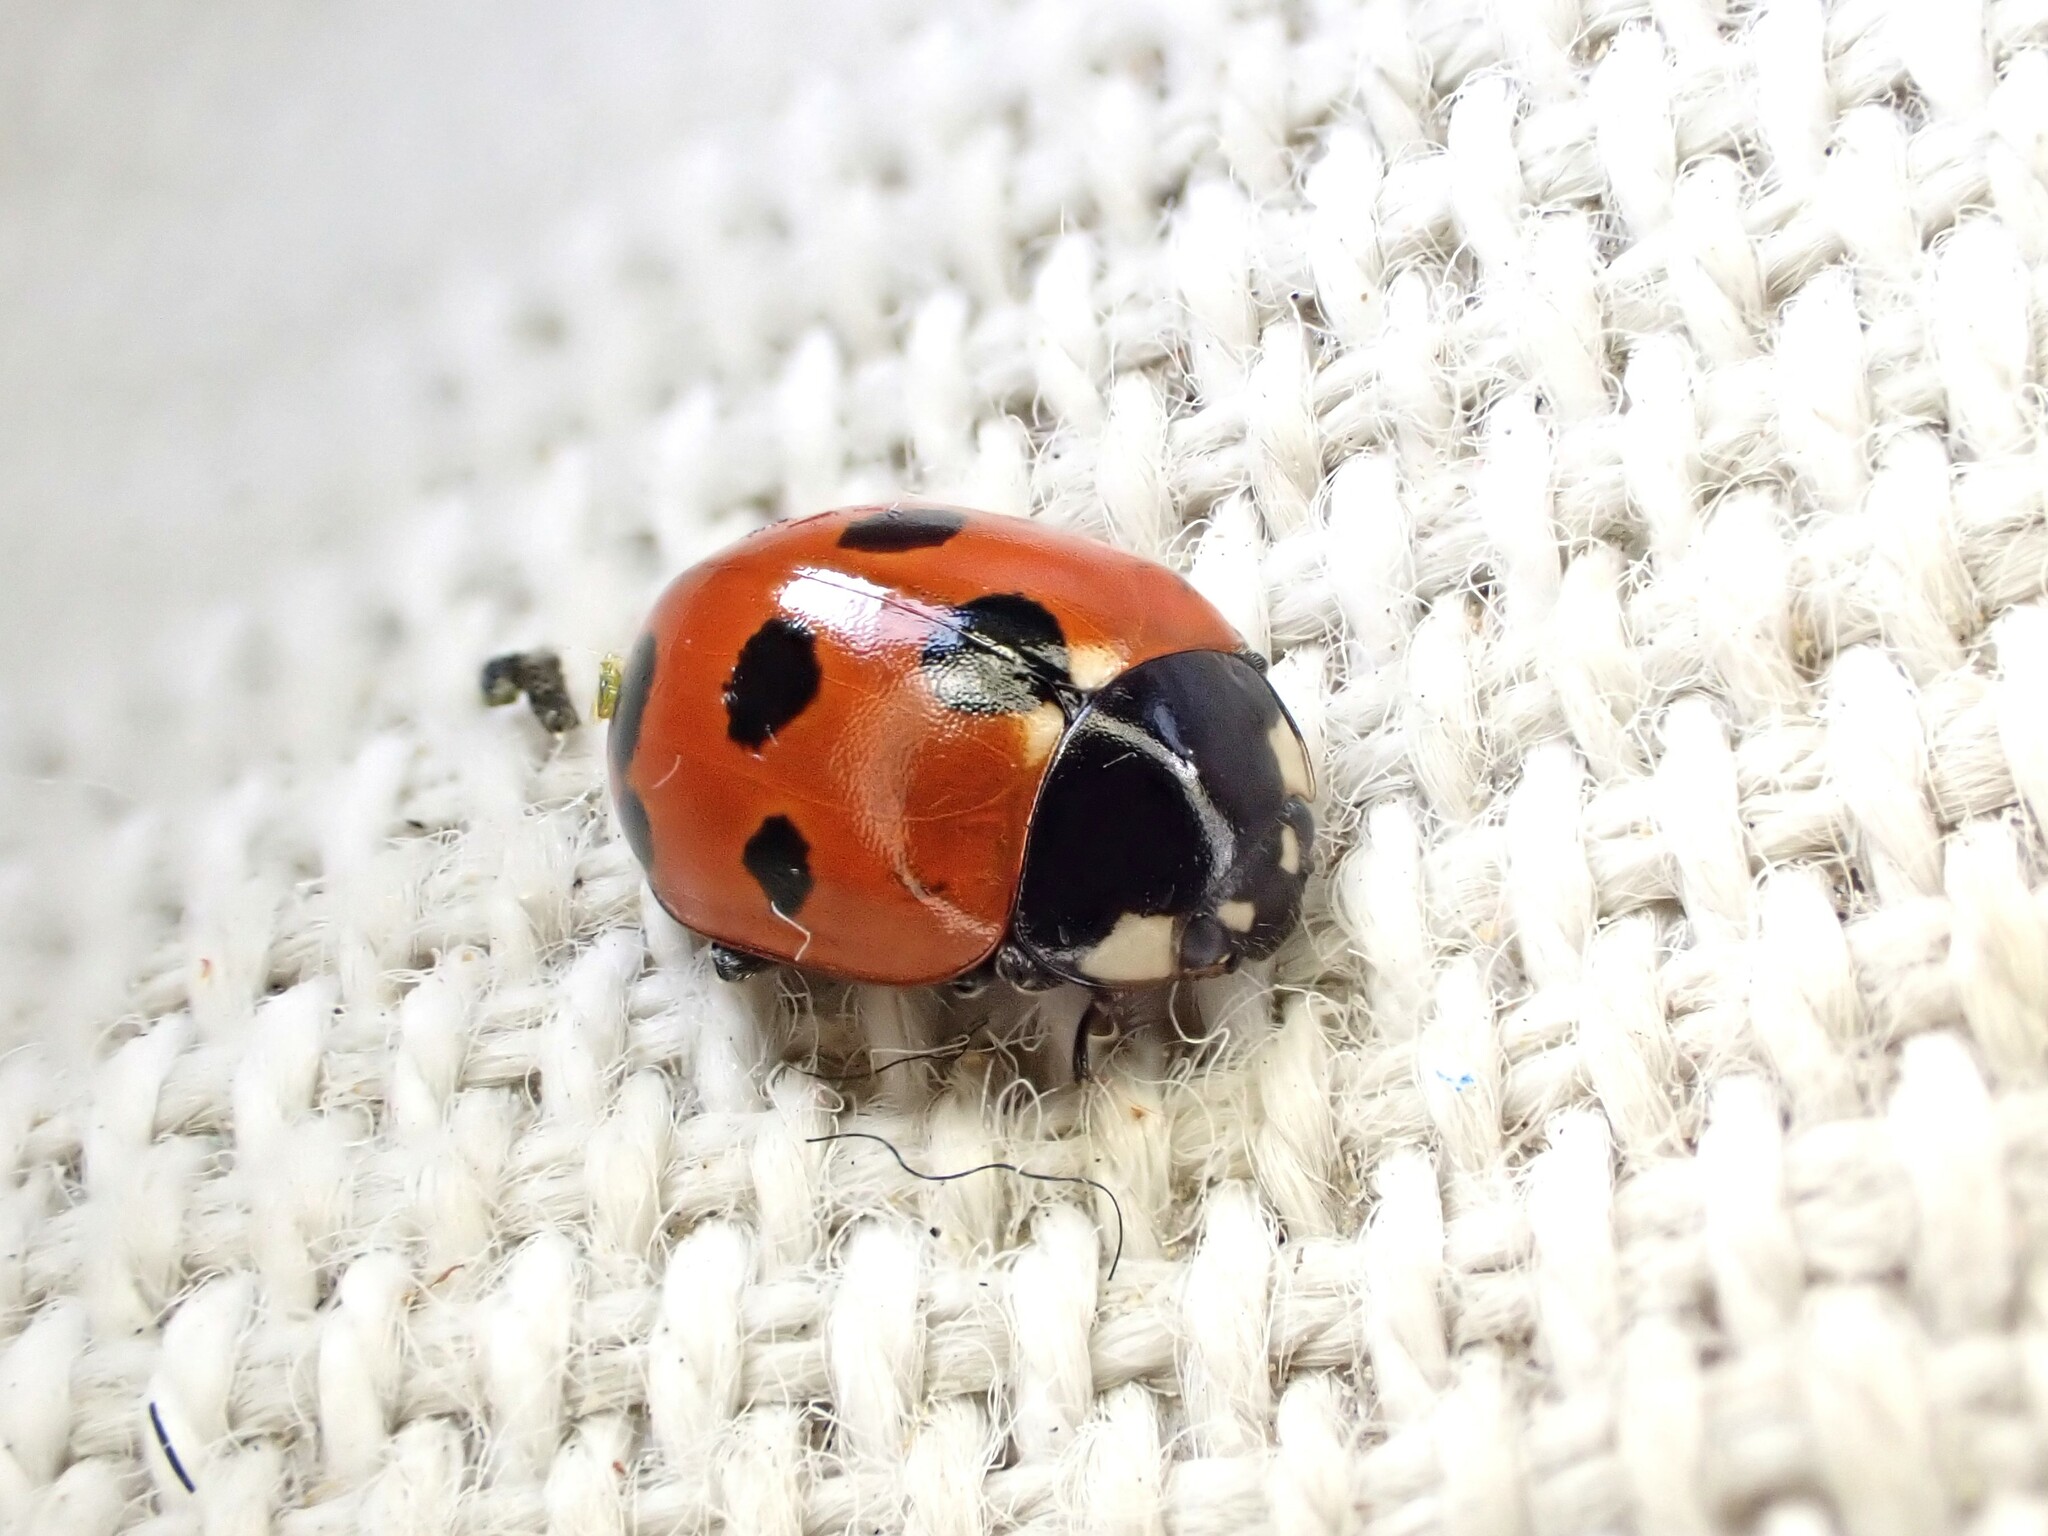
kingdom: Animalia
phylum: Arthropoda
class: Insecta
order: Coleoptera
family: Coccinellidae
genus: Coccinella
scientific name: Coccinella undecimpunctata
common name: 11-spot ladybird
